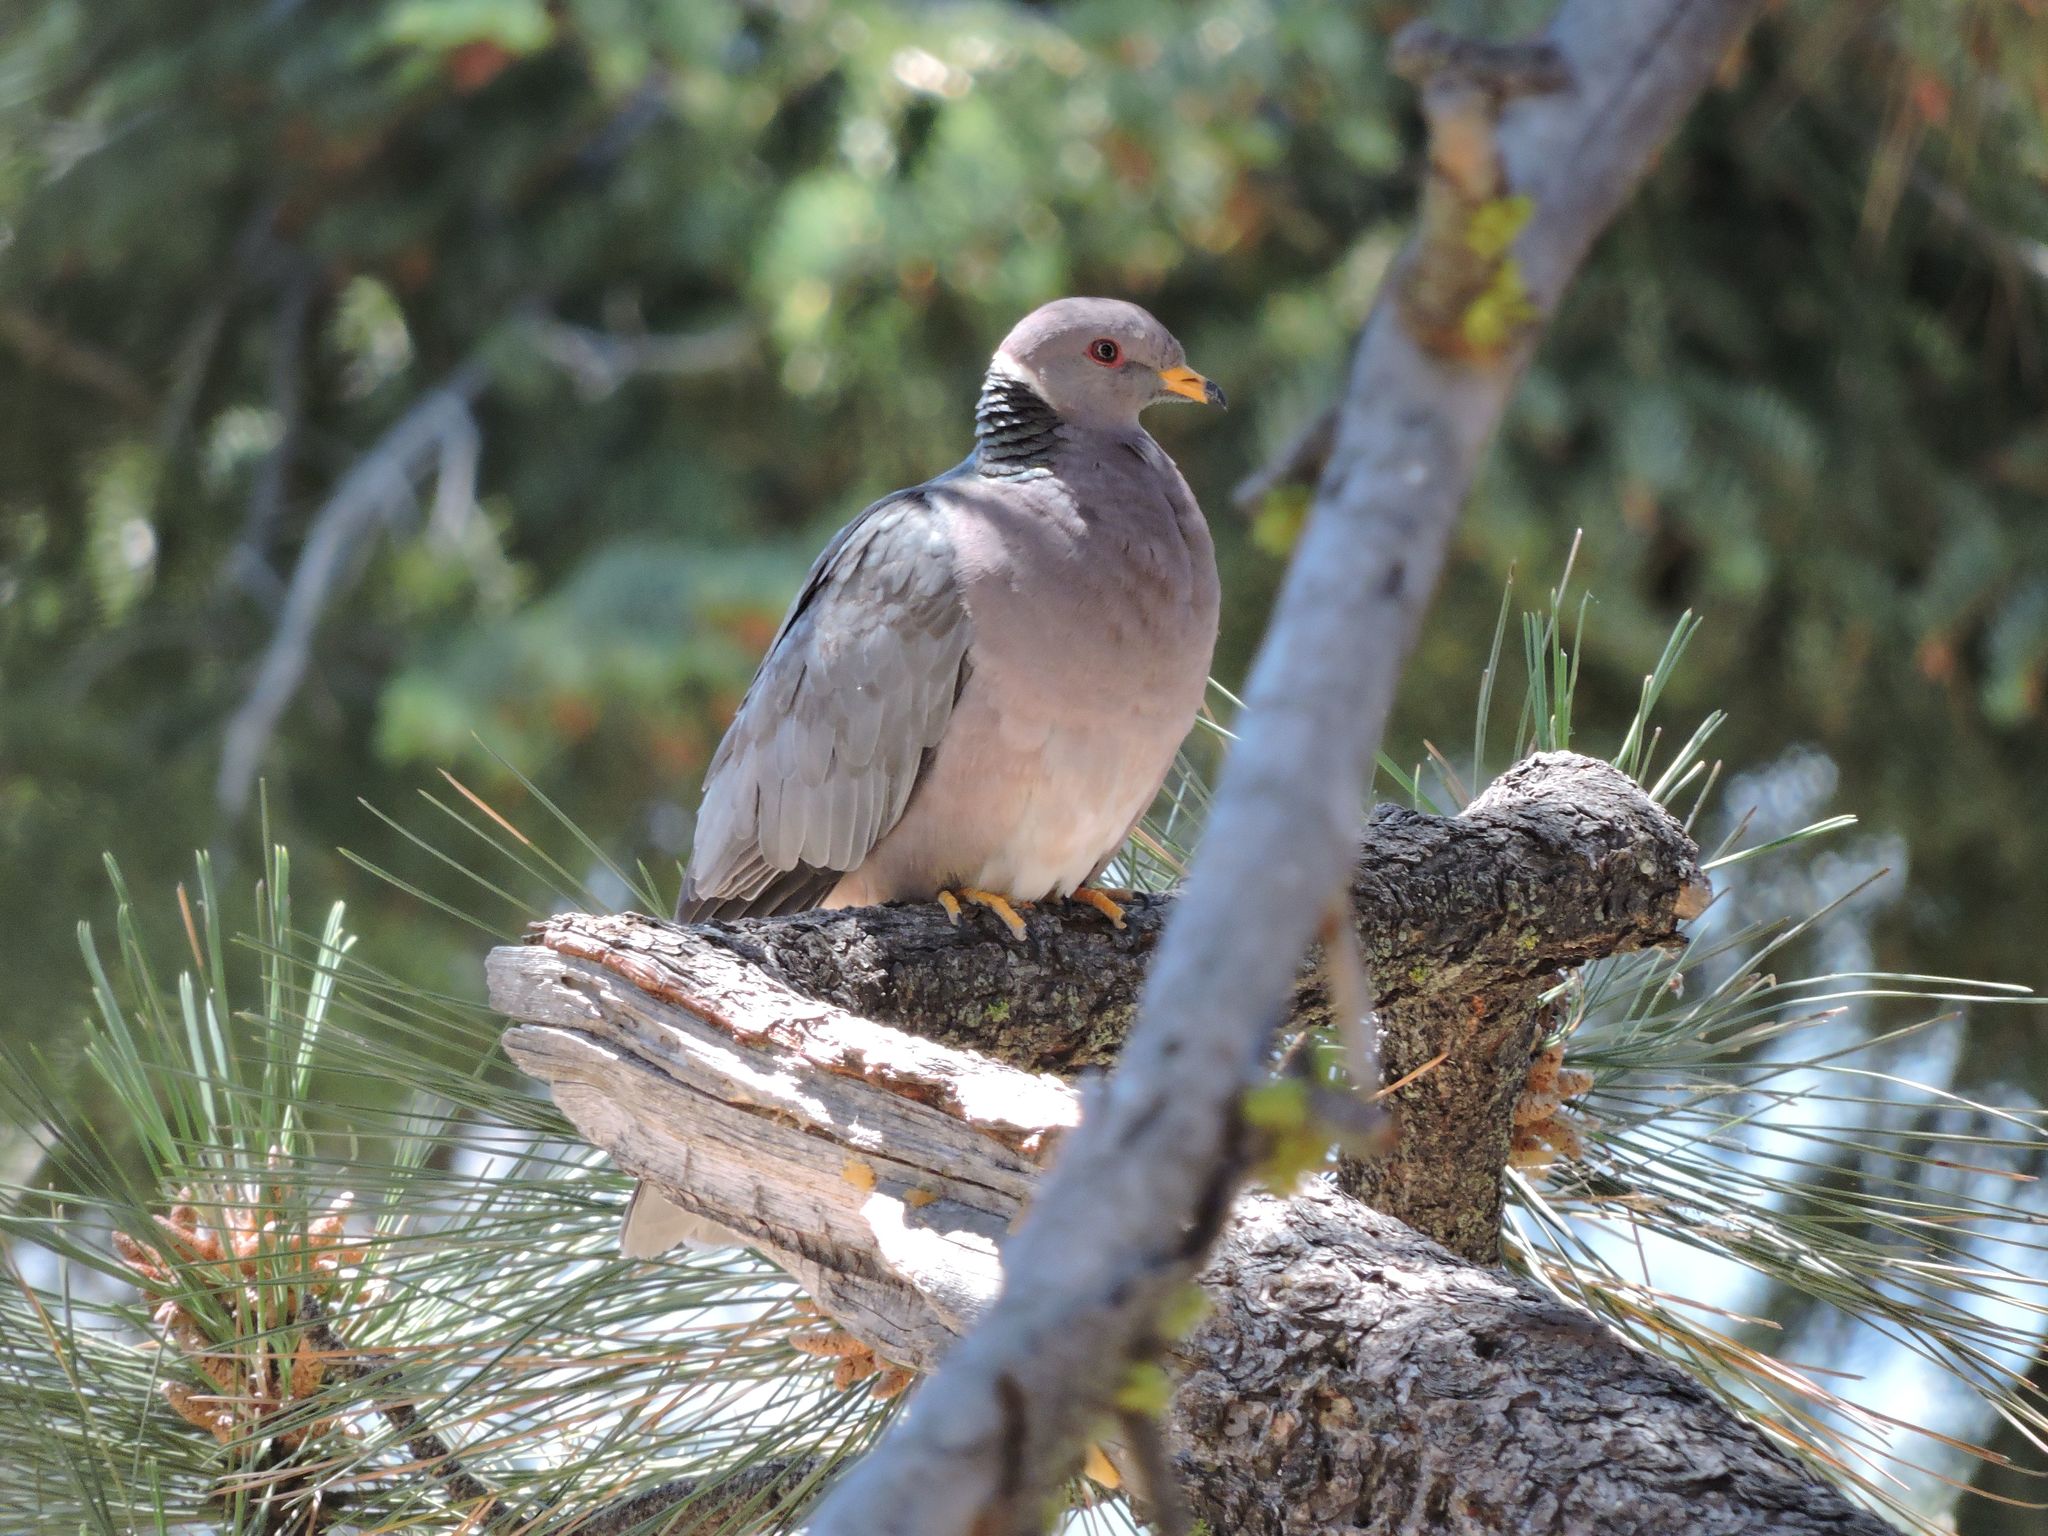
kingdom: Animalia
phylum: Chordata
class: Aves
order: Columbiformes
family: Columbidae
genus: Patagioenas
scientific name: Patagioenas fasciata
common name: Band-tailed pigeon
